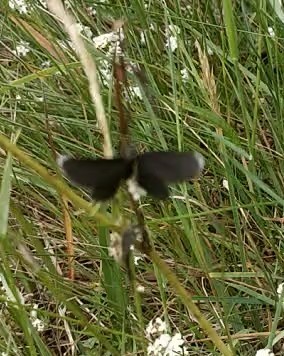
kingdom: Animalia
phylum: Arthropoda
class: Insecta
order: Lepidoptera
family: Geometridae
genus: Odezia
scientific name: Odezia atrata
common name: Chimney sweeper
